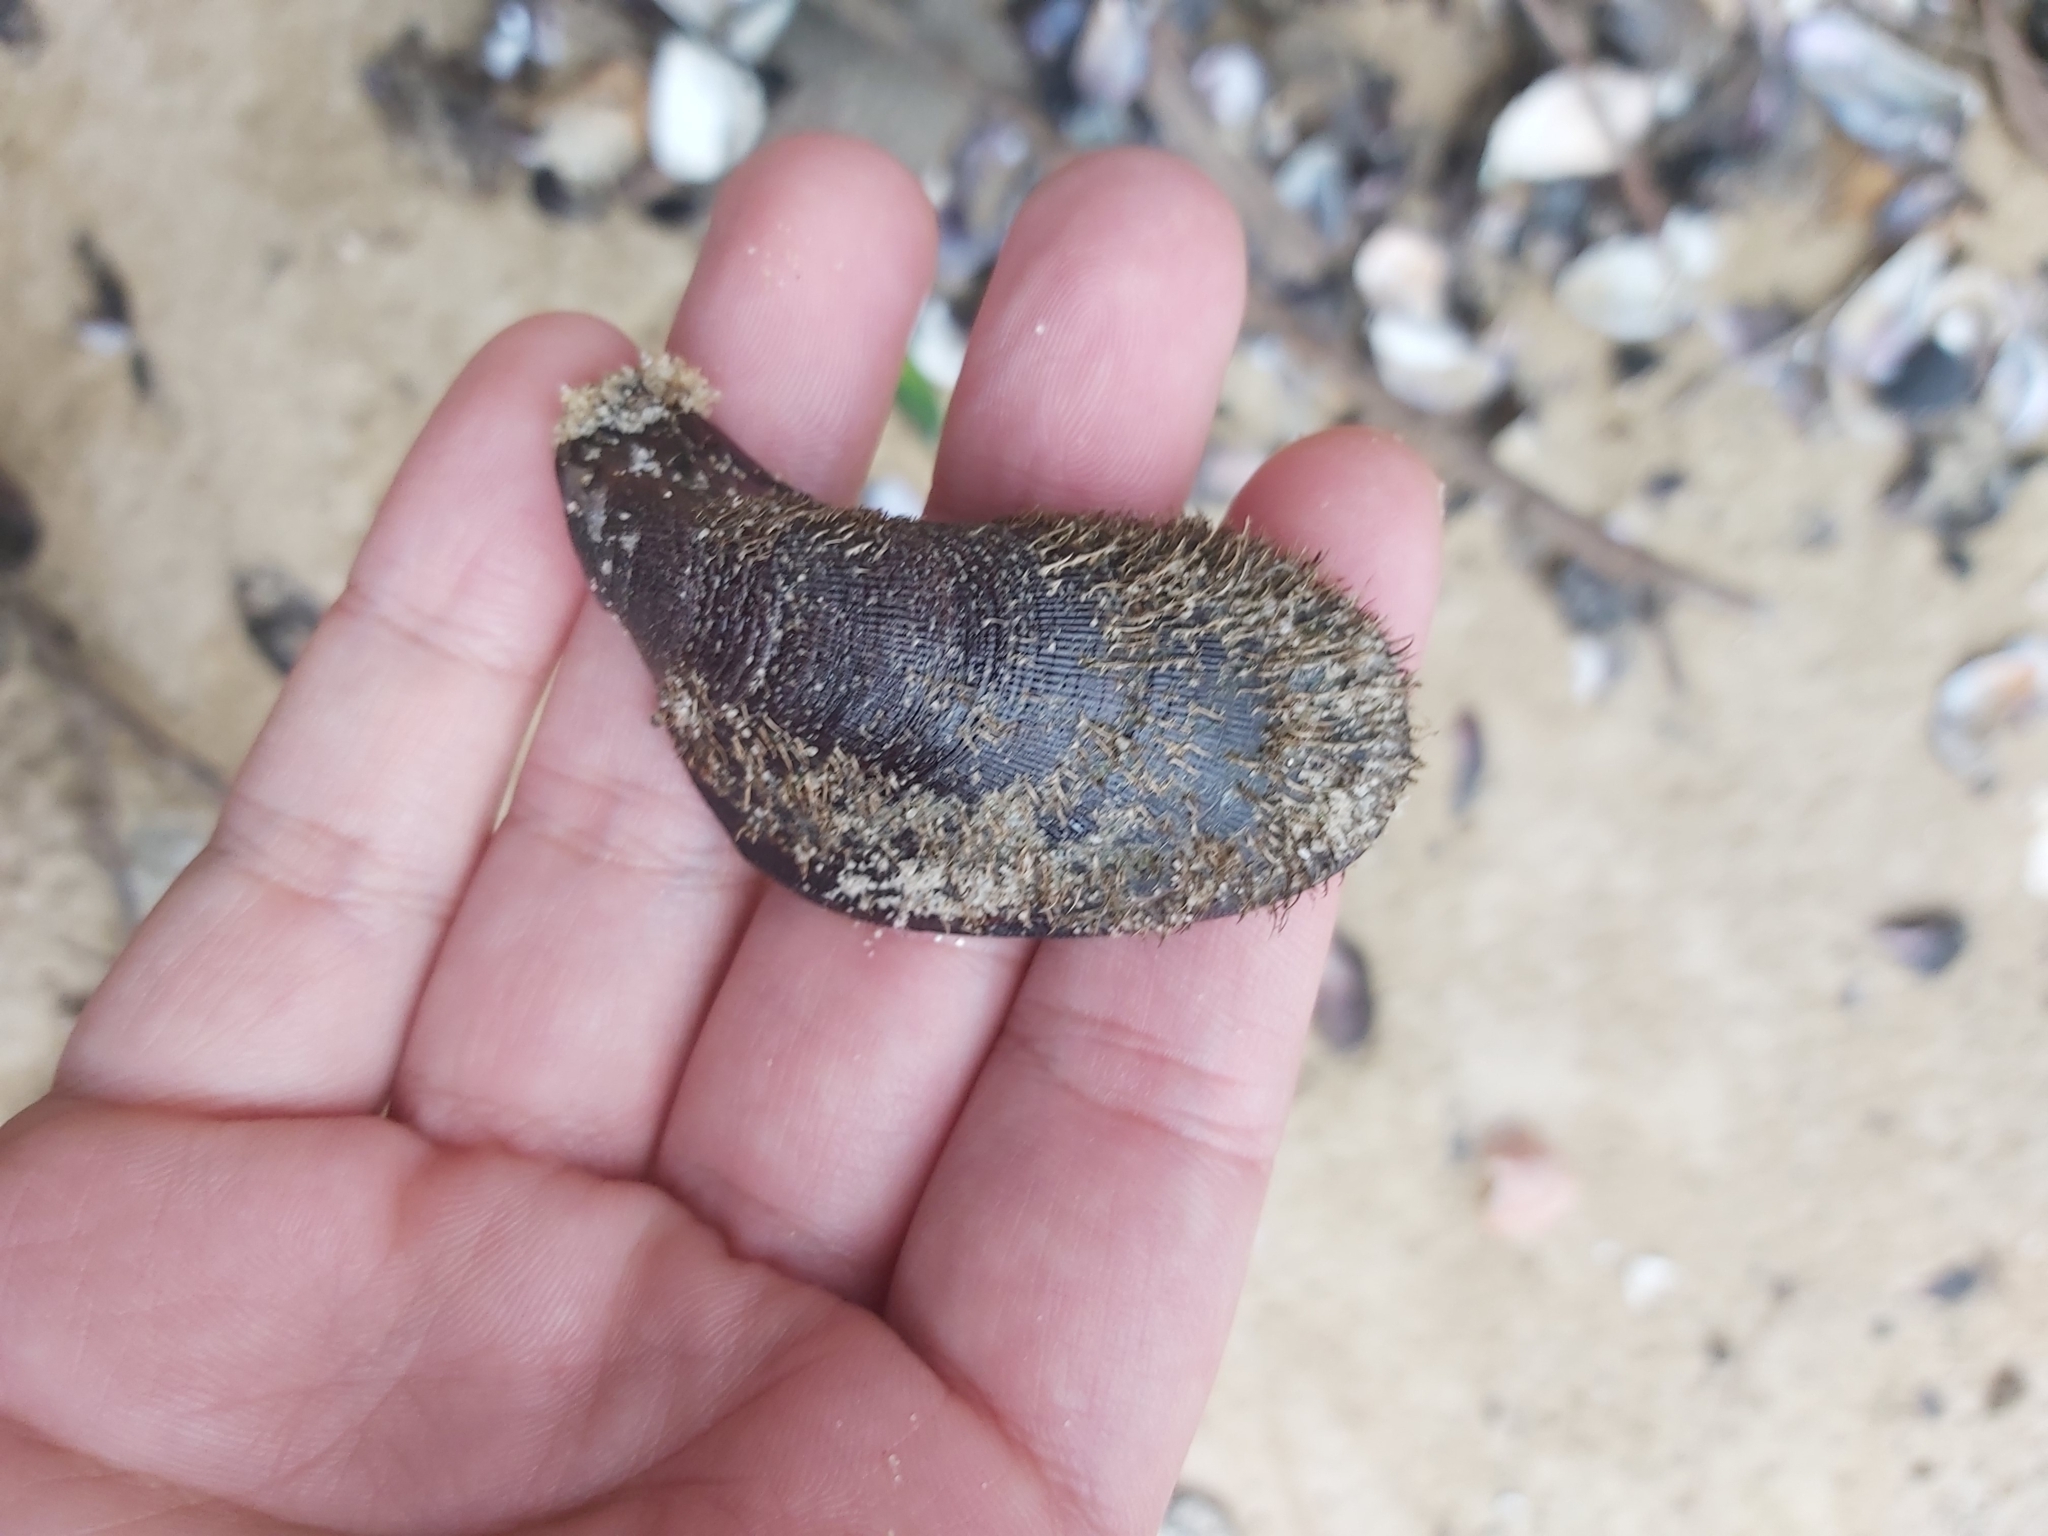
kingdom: Animalia
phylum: Mollusca
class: Bivalvia
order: Mytilida
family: Mytilidae
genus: Trichomya
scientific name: Trichomya hirsuta
